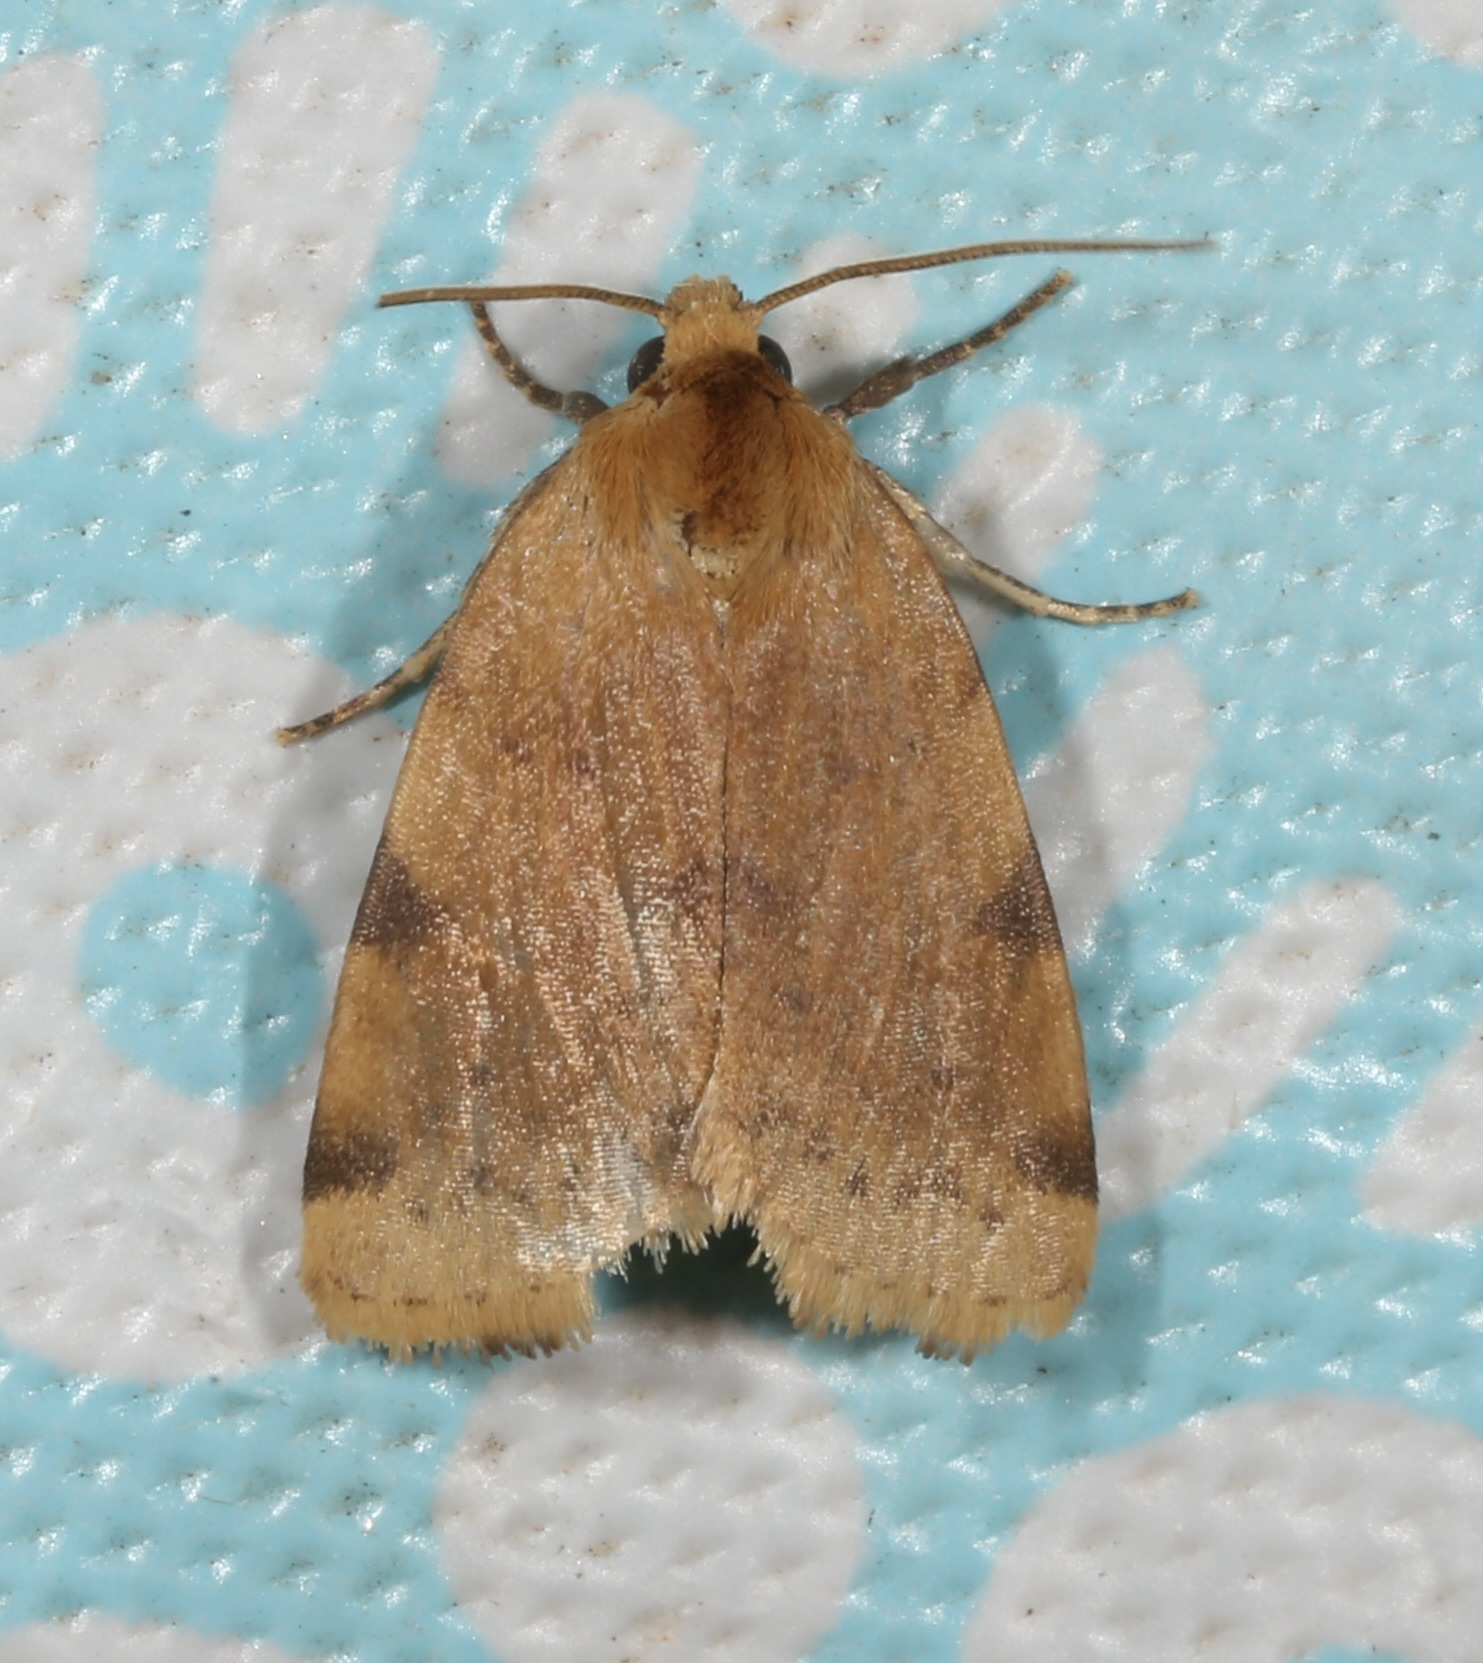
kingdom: Animalia
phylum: Arthropoda
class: Insecta
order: Lepidoptera
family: Noctuidae
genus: Azenia
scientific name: Azenia procida
